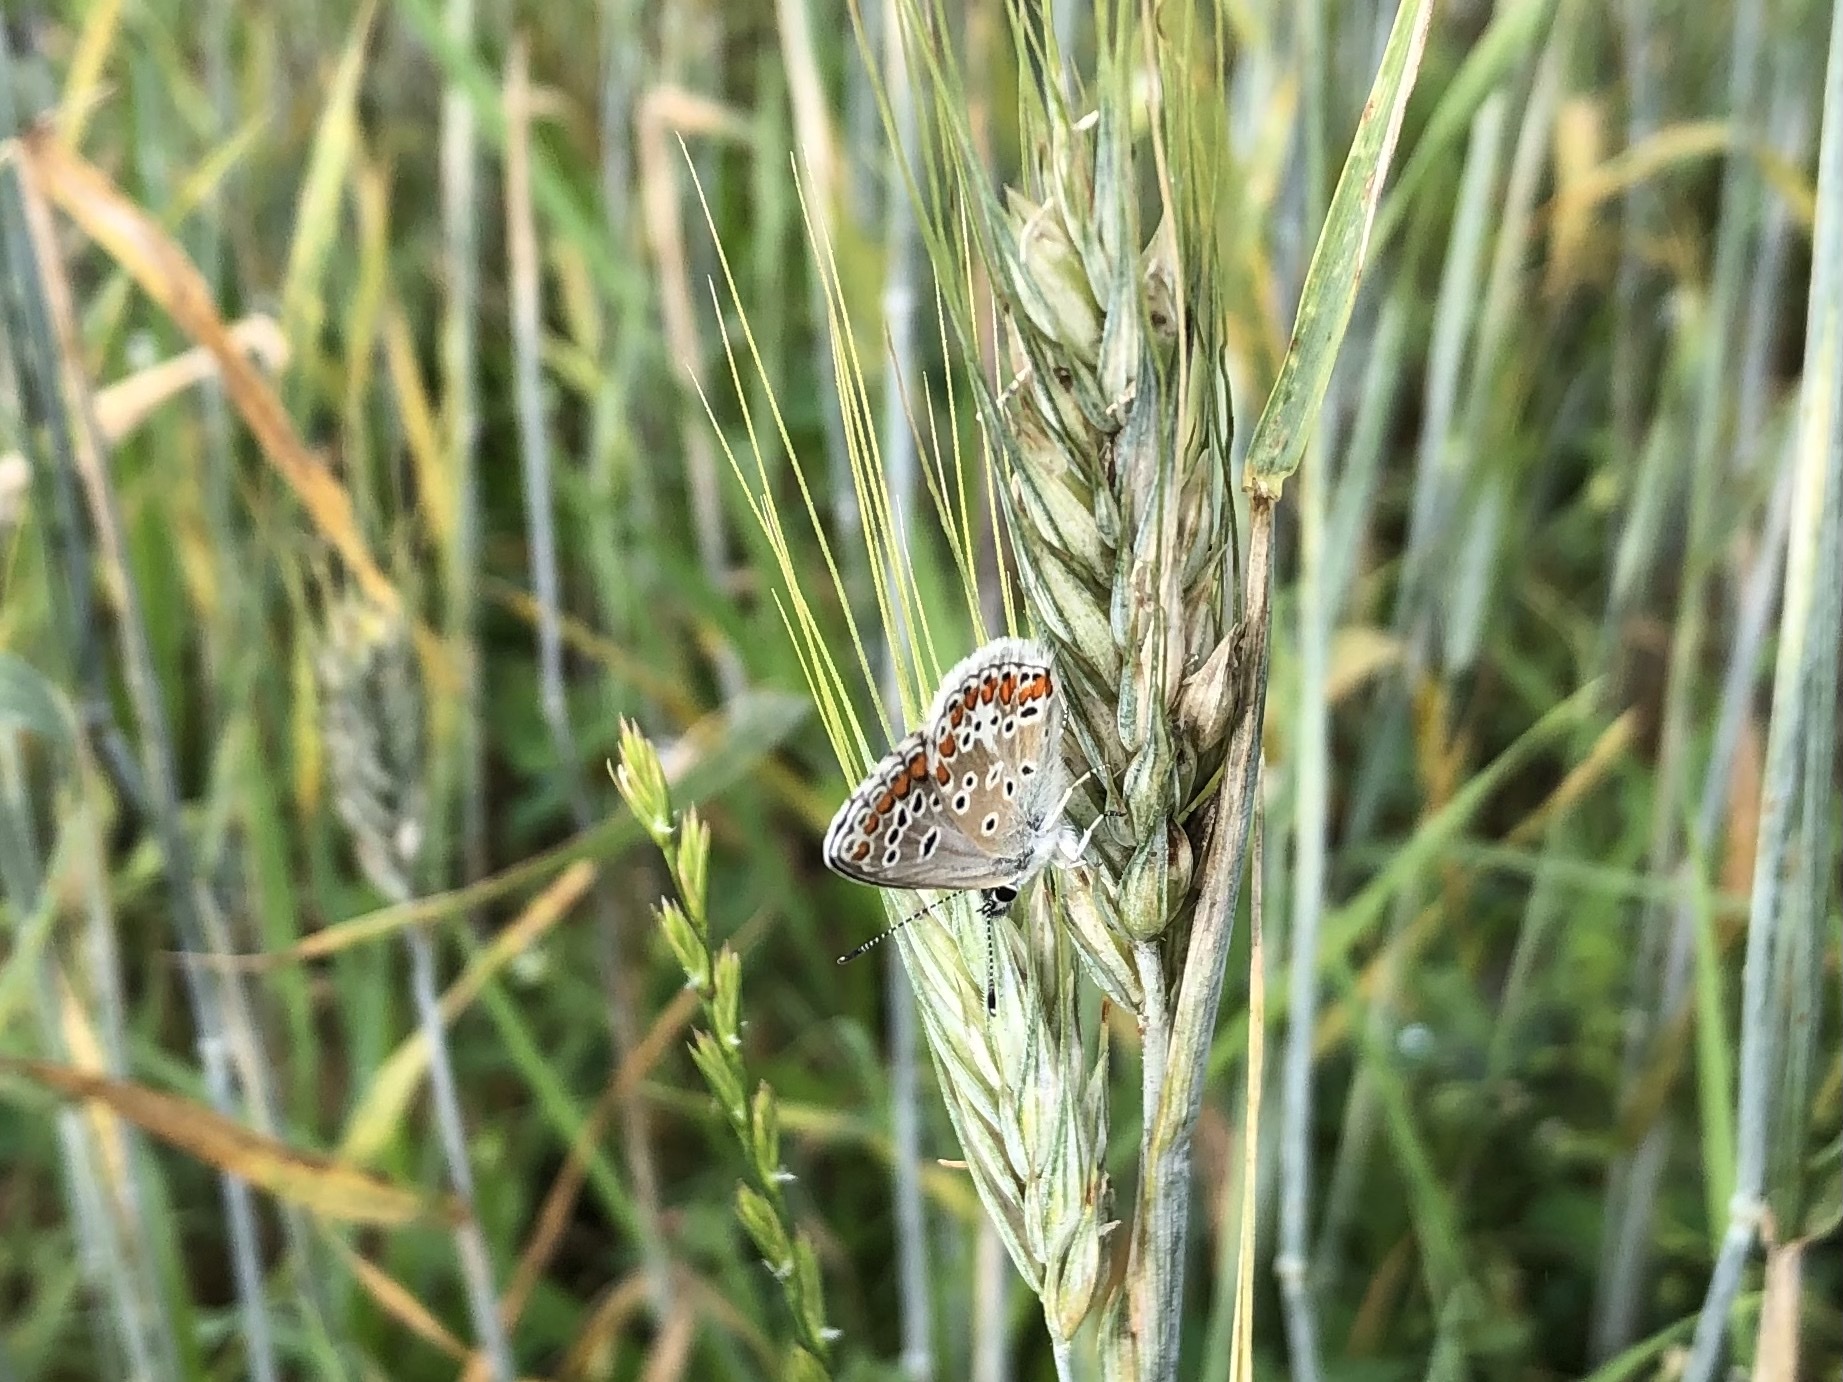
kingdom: Animalia
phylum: Arthropoda
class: Insecta
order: Lepidoptera
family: Lycaenidae
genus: Aricia
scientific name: Aricia agestis
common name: Brown argus
